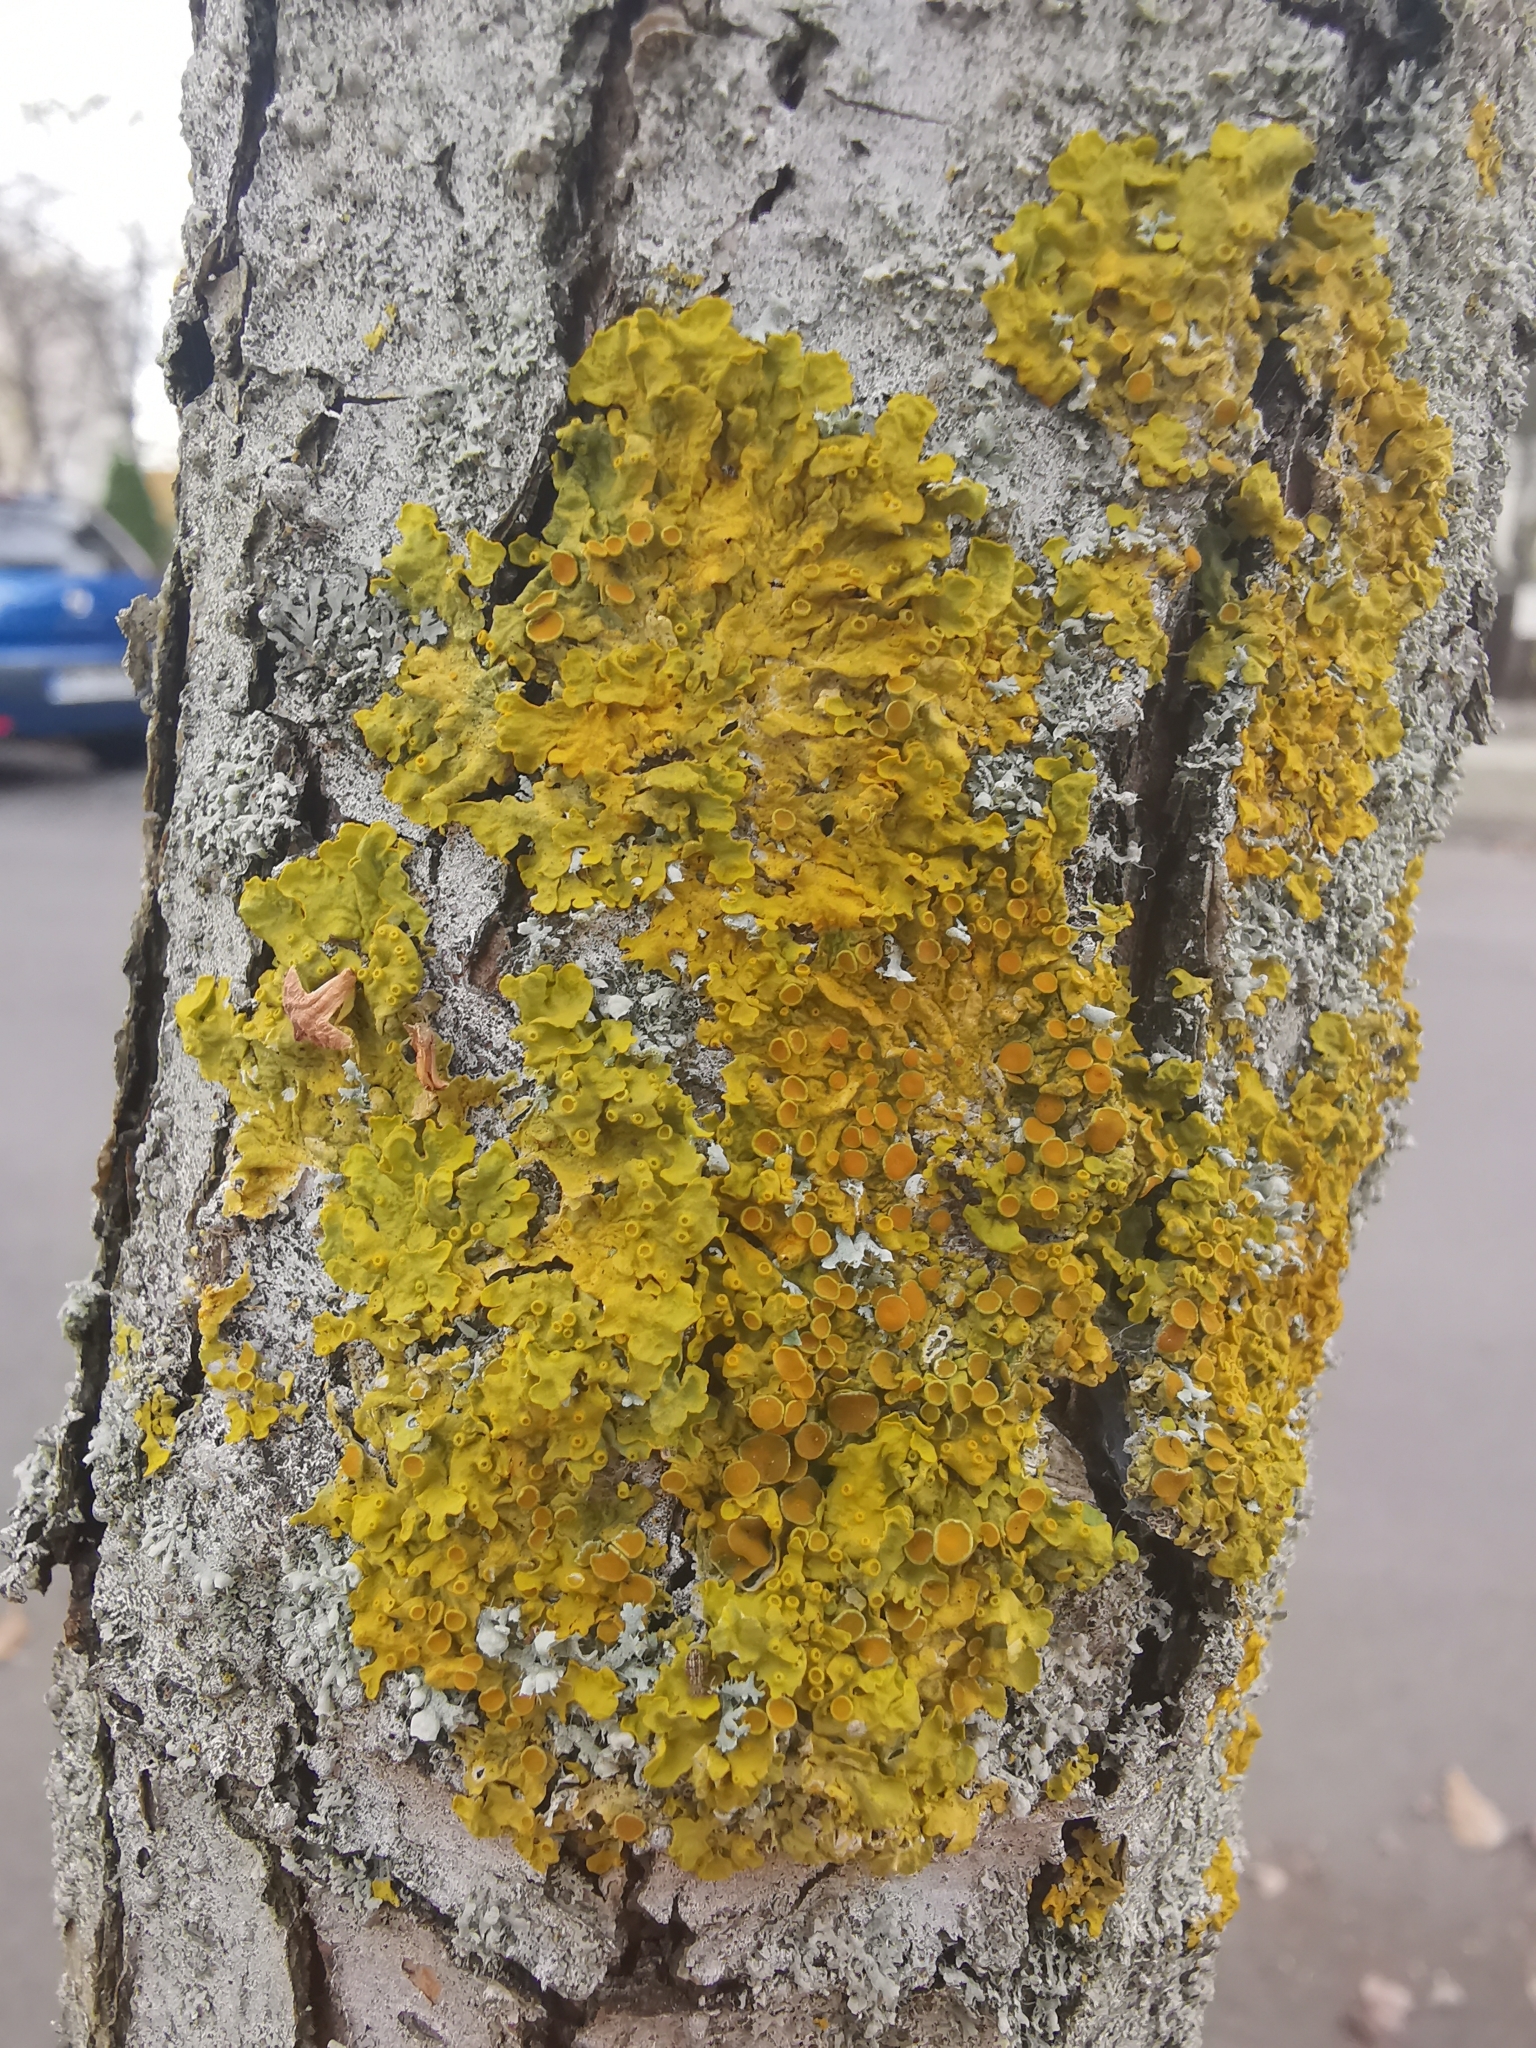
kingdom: Fungi
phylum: Ascomycota
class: Lecanoromycetes
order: Teloschistales
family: Teloschistaceae
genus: Xanthoria
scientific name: Xanthoria parietina
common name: Common orange lichen
